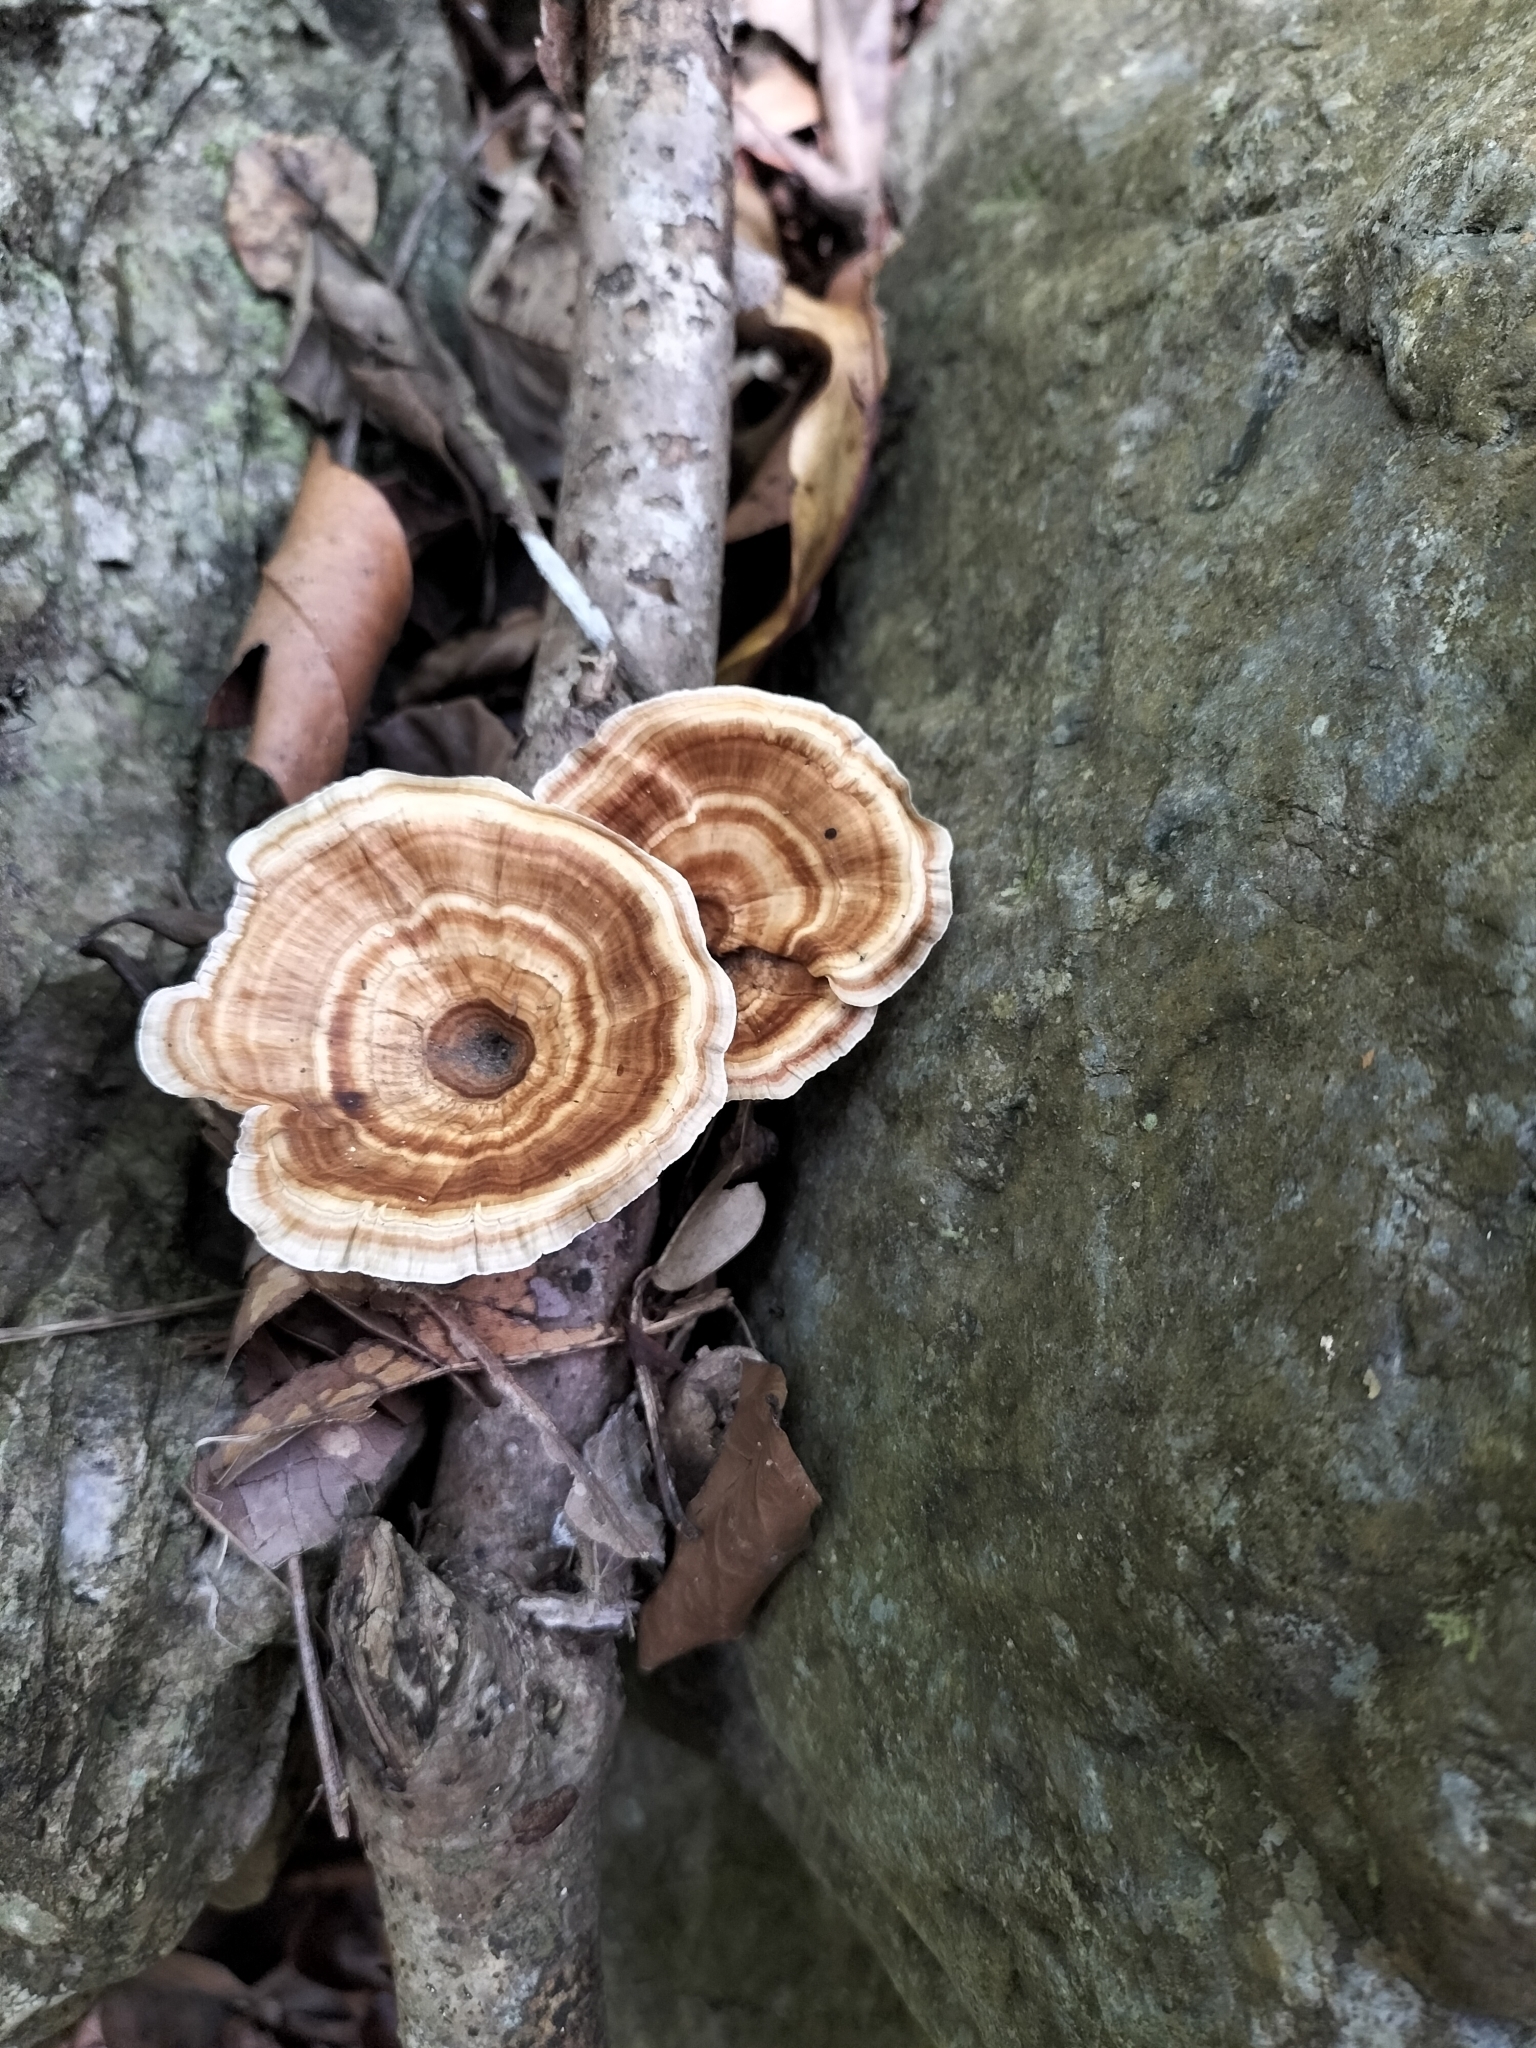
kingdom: Fungi
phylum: Basidiomycota
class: Agaricomycetes
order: Polyporales
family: Polyporaceae
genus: Microporus
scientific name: Microporus xanthopus
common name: Yellow-stemmed micropore
